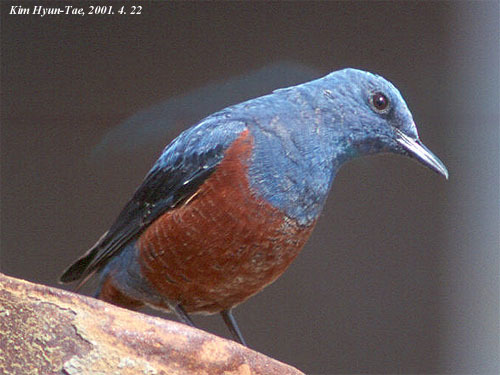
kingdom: Animalia
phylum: Chordata
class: Aves
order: Passeriformes
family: Muscicapidae
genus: Monticola
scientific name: Monticola solitarius
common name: Blue rock thrush
